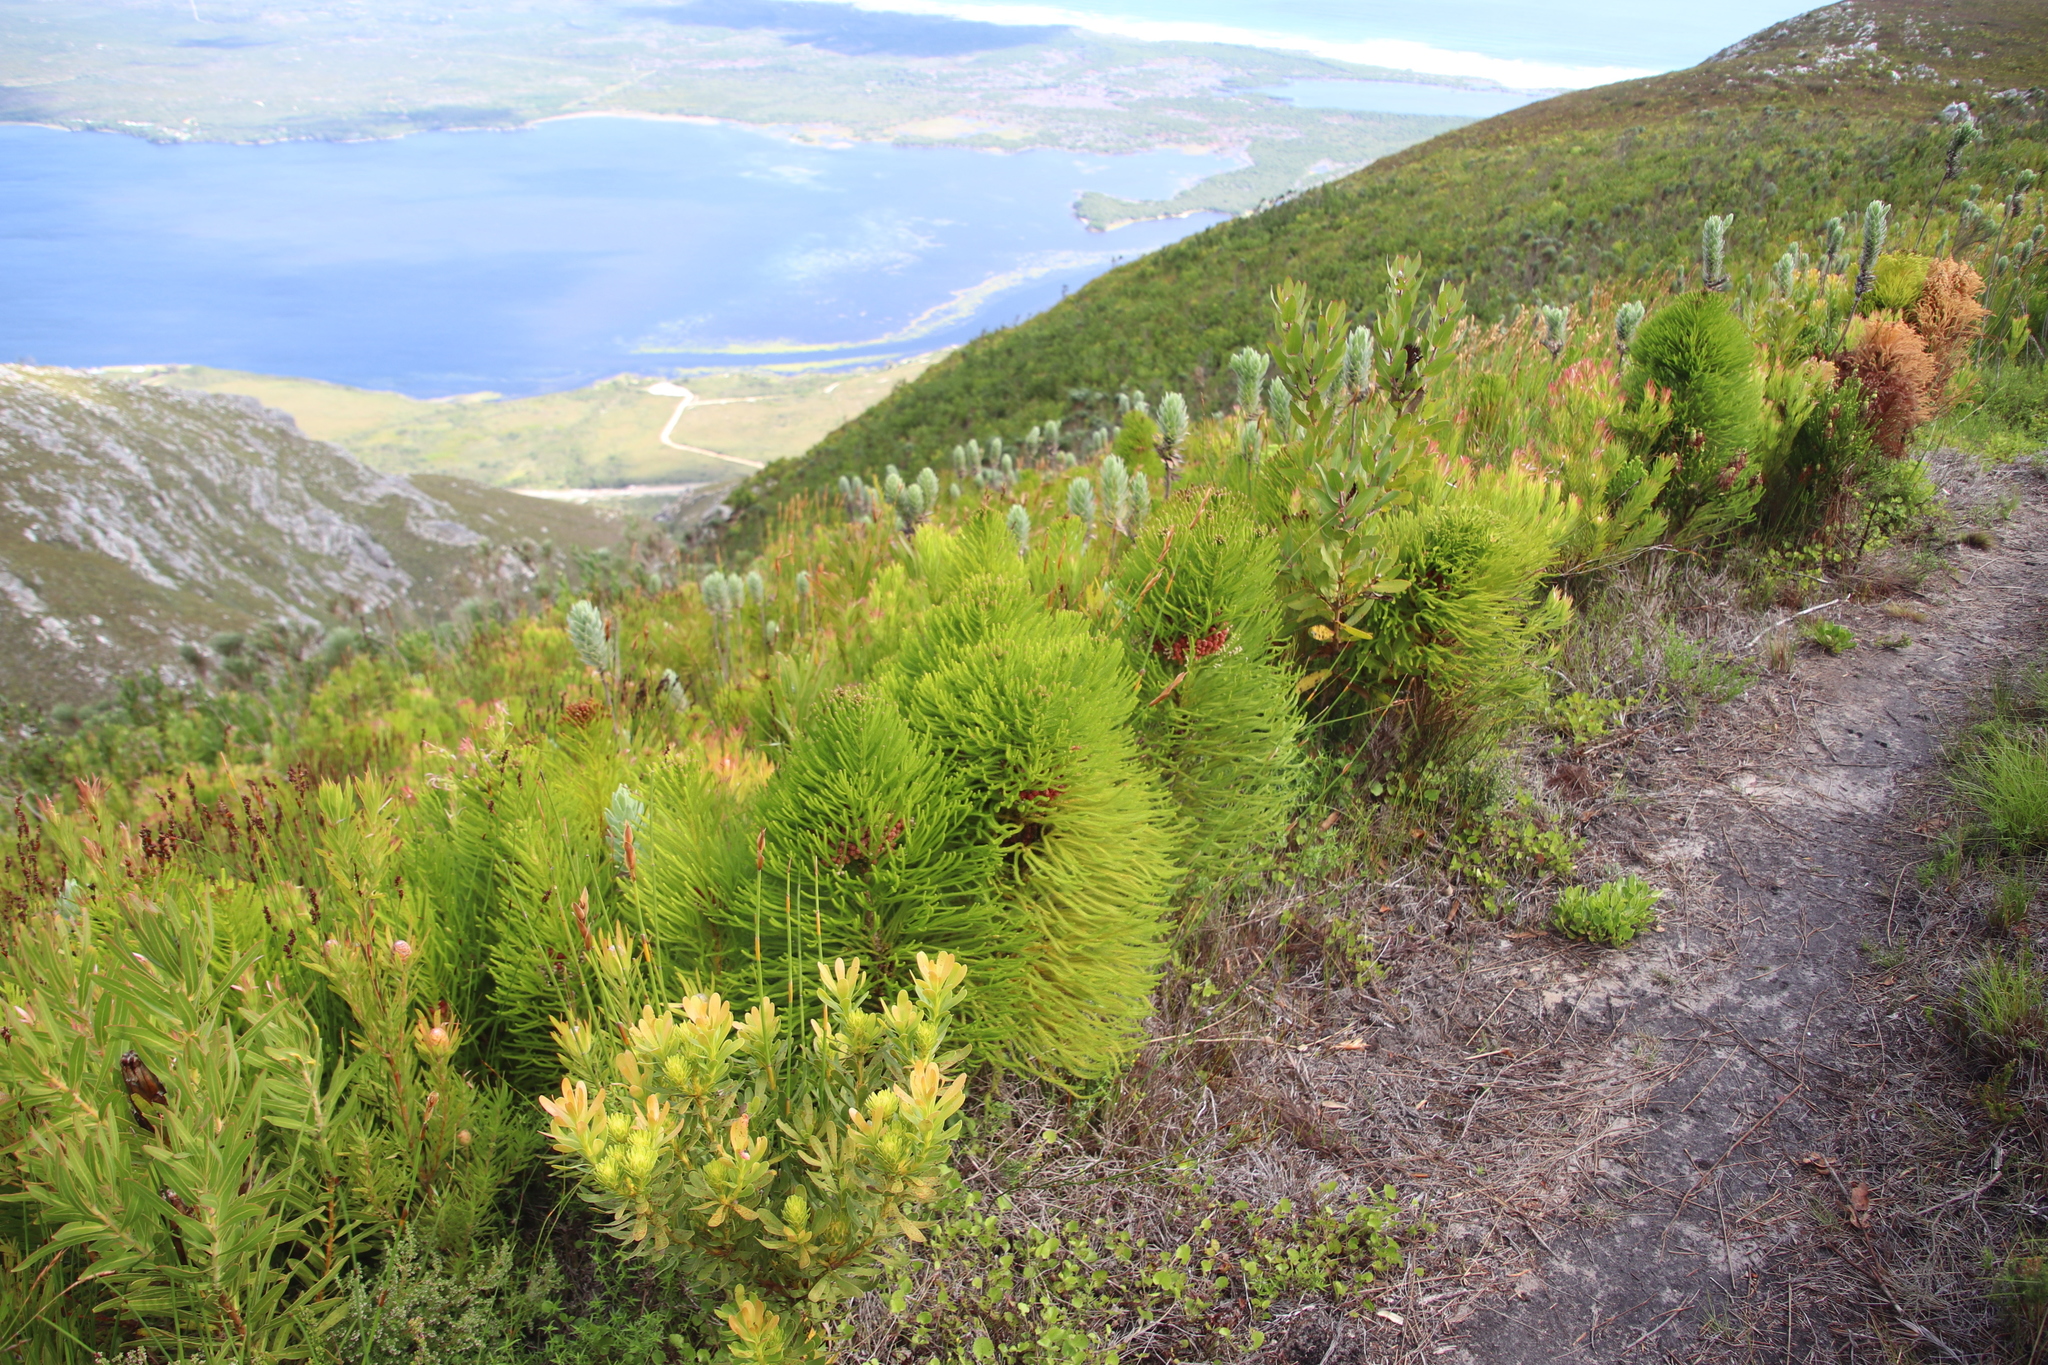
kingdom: Plantae
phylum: Tracheophyta
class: Magnoliopsida
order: Bruniales
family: Bruniaceae
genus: Berzelia
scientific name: Berzelia alopecurioides
